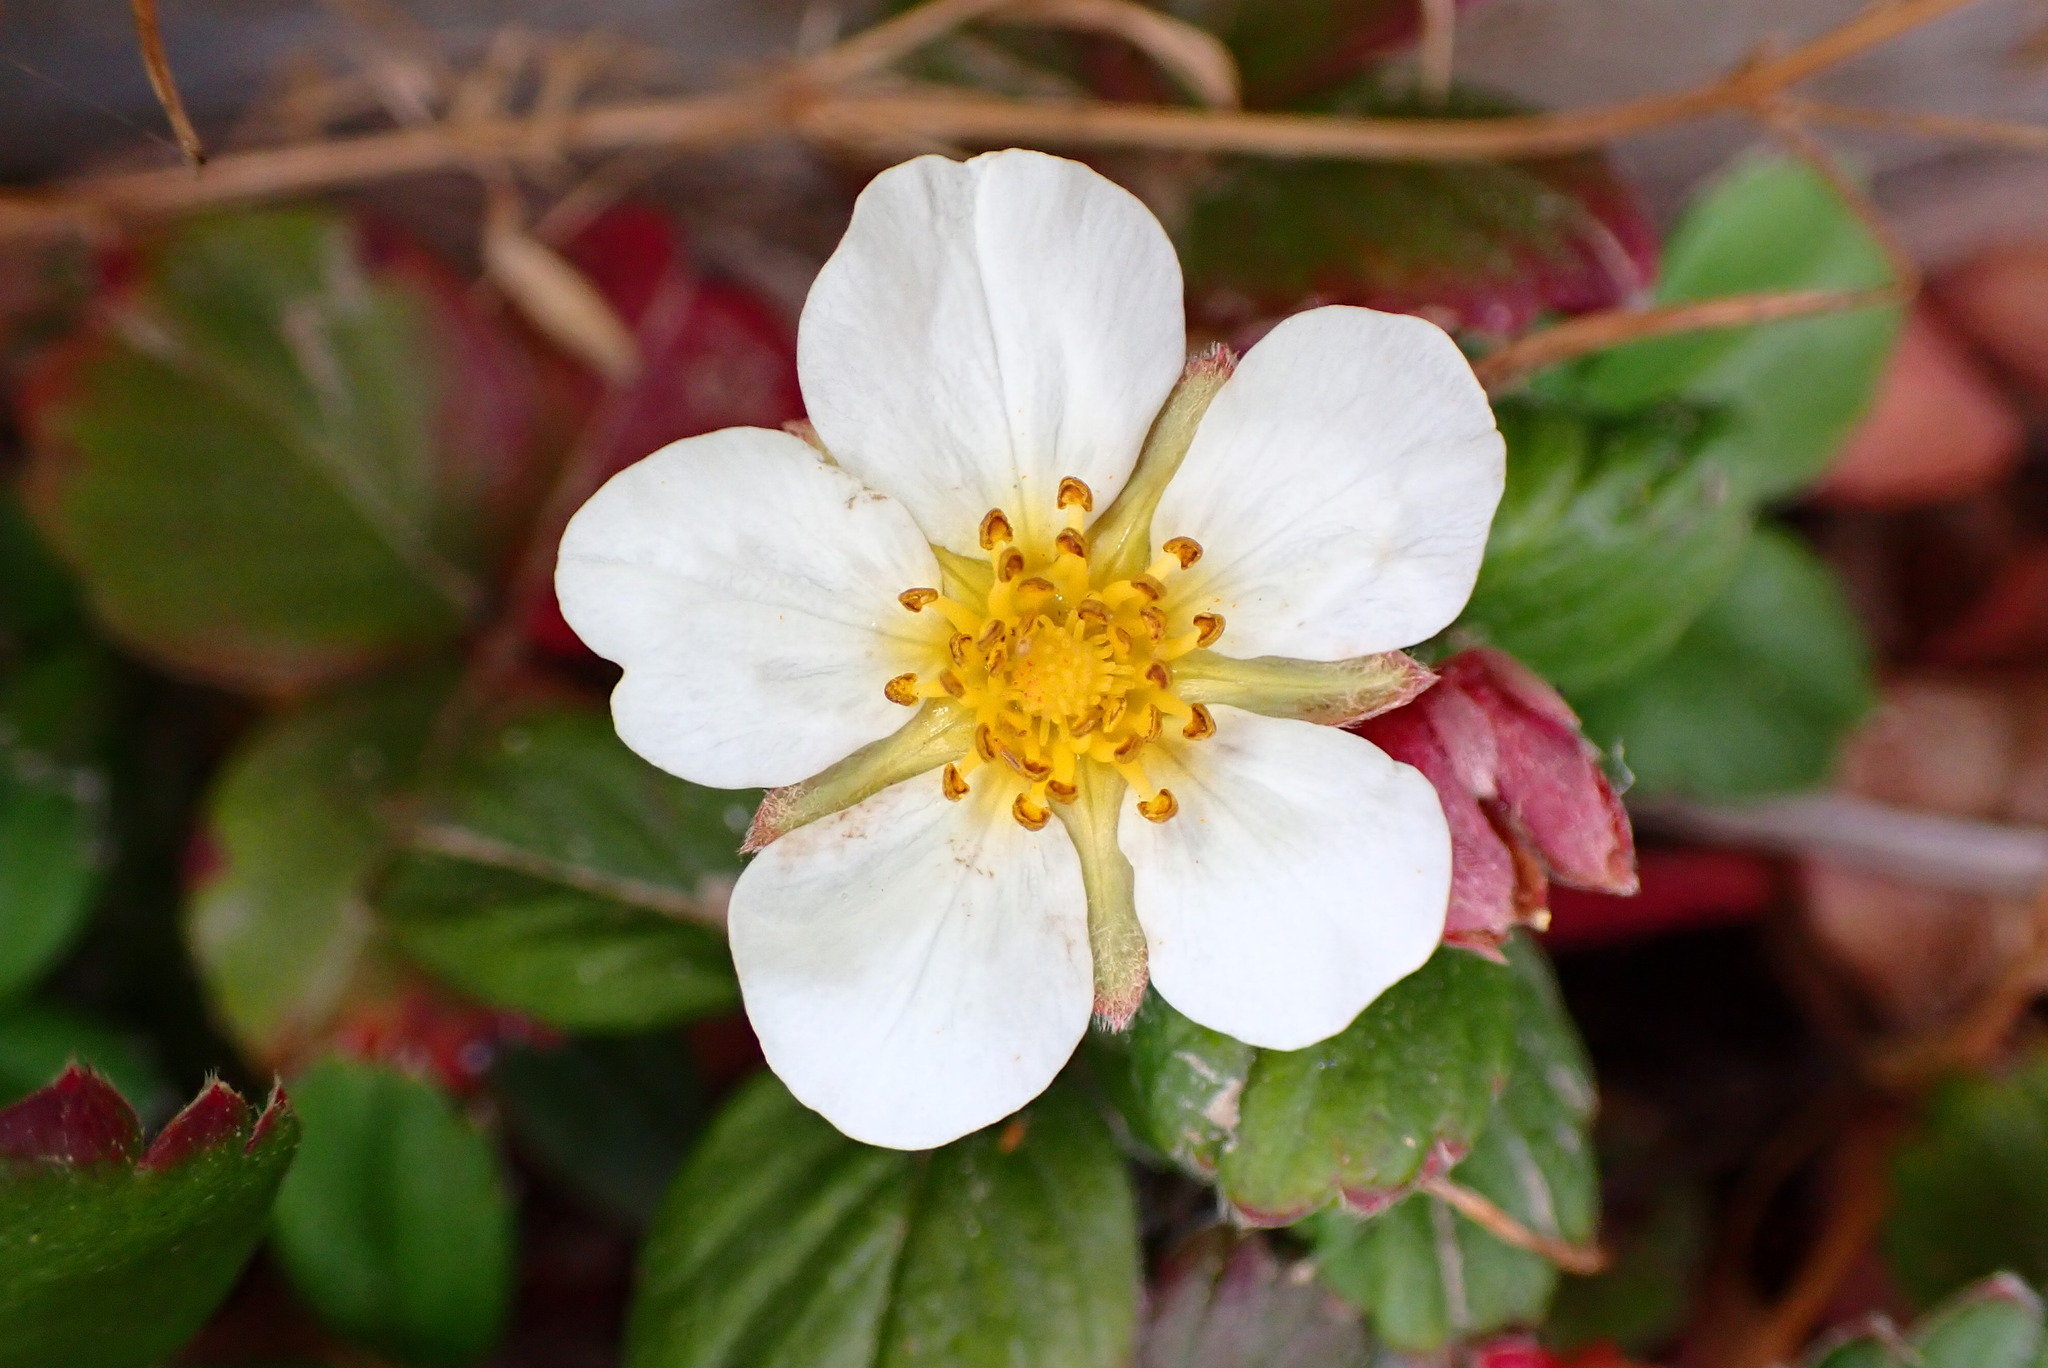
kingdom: Plantae
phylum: Tracheophyta
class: Magnoliopsida
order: Rosales
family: Rosaceae
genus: Fragaria
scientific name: Fragaria chiloensis
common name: Beach strawberry
